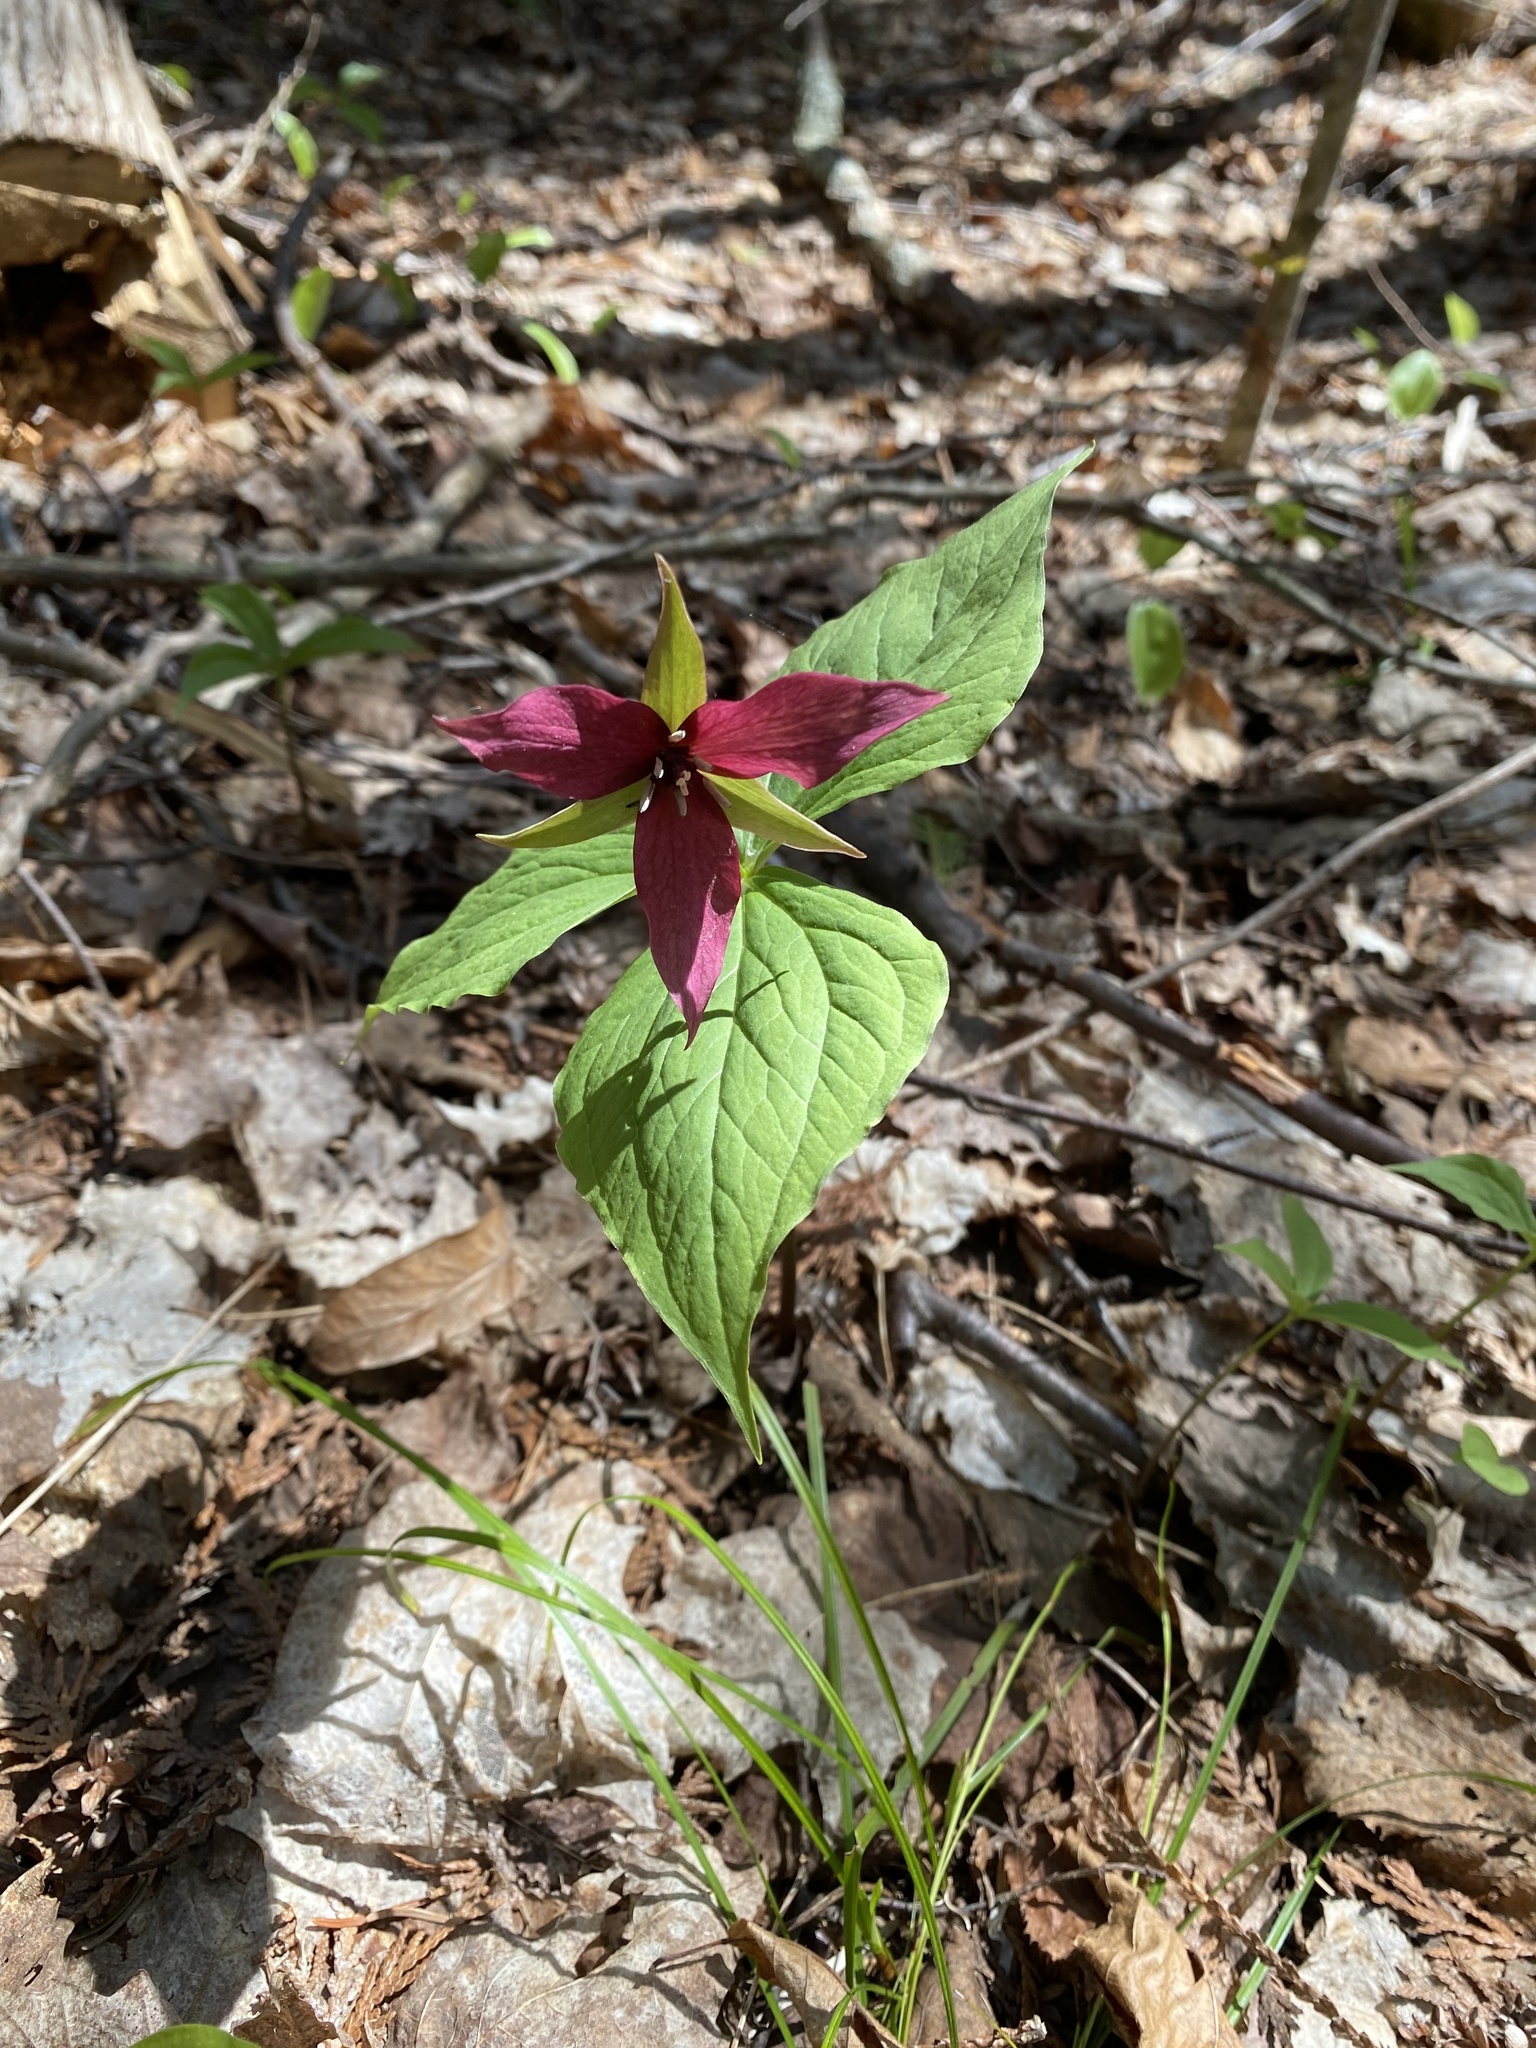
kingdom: Plantae
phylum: Tracheophyta
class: Liliopsida
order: Liliales
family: Melanthiaceae
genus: Trillium
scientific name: Trillium erectum
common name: Purple trillium
